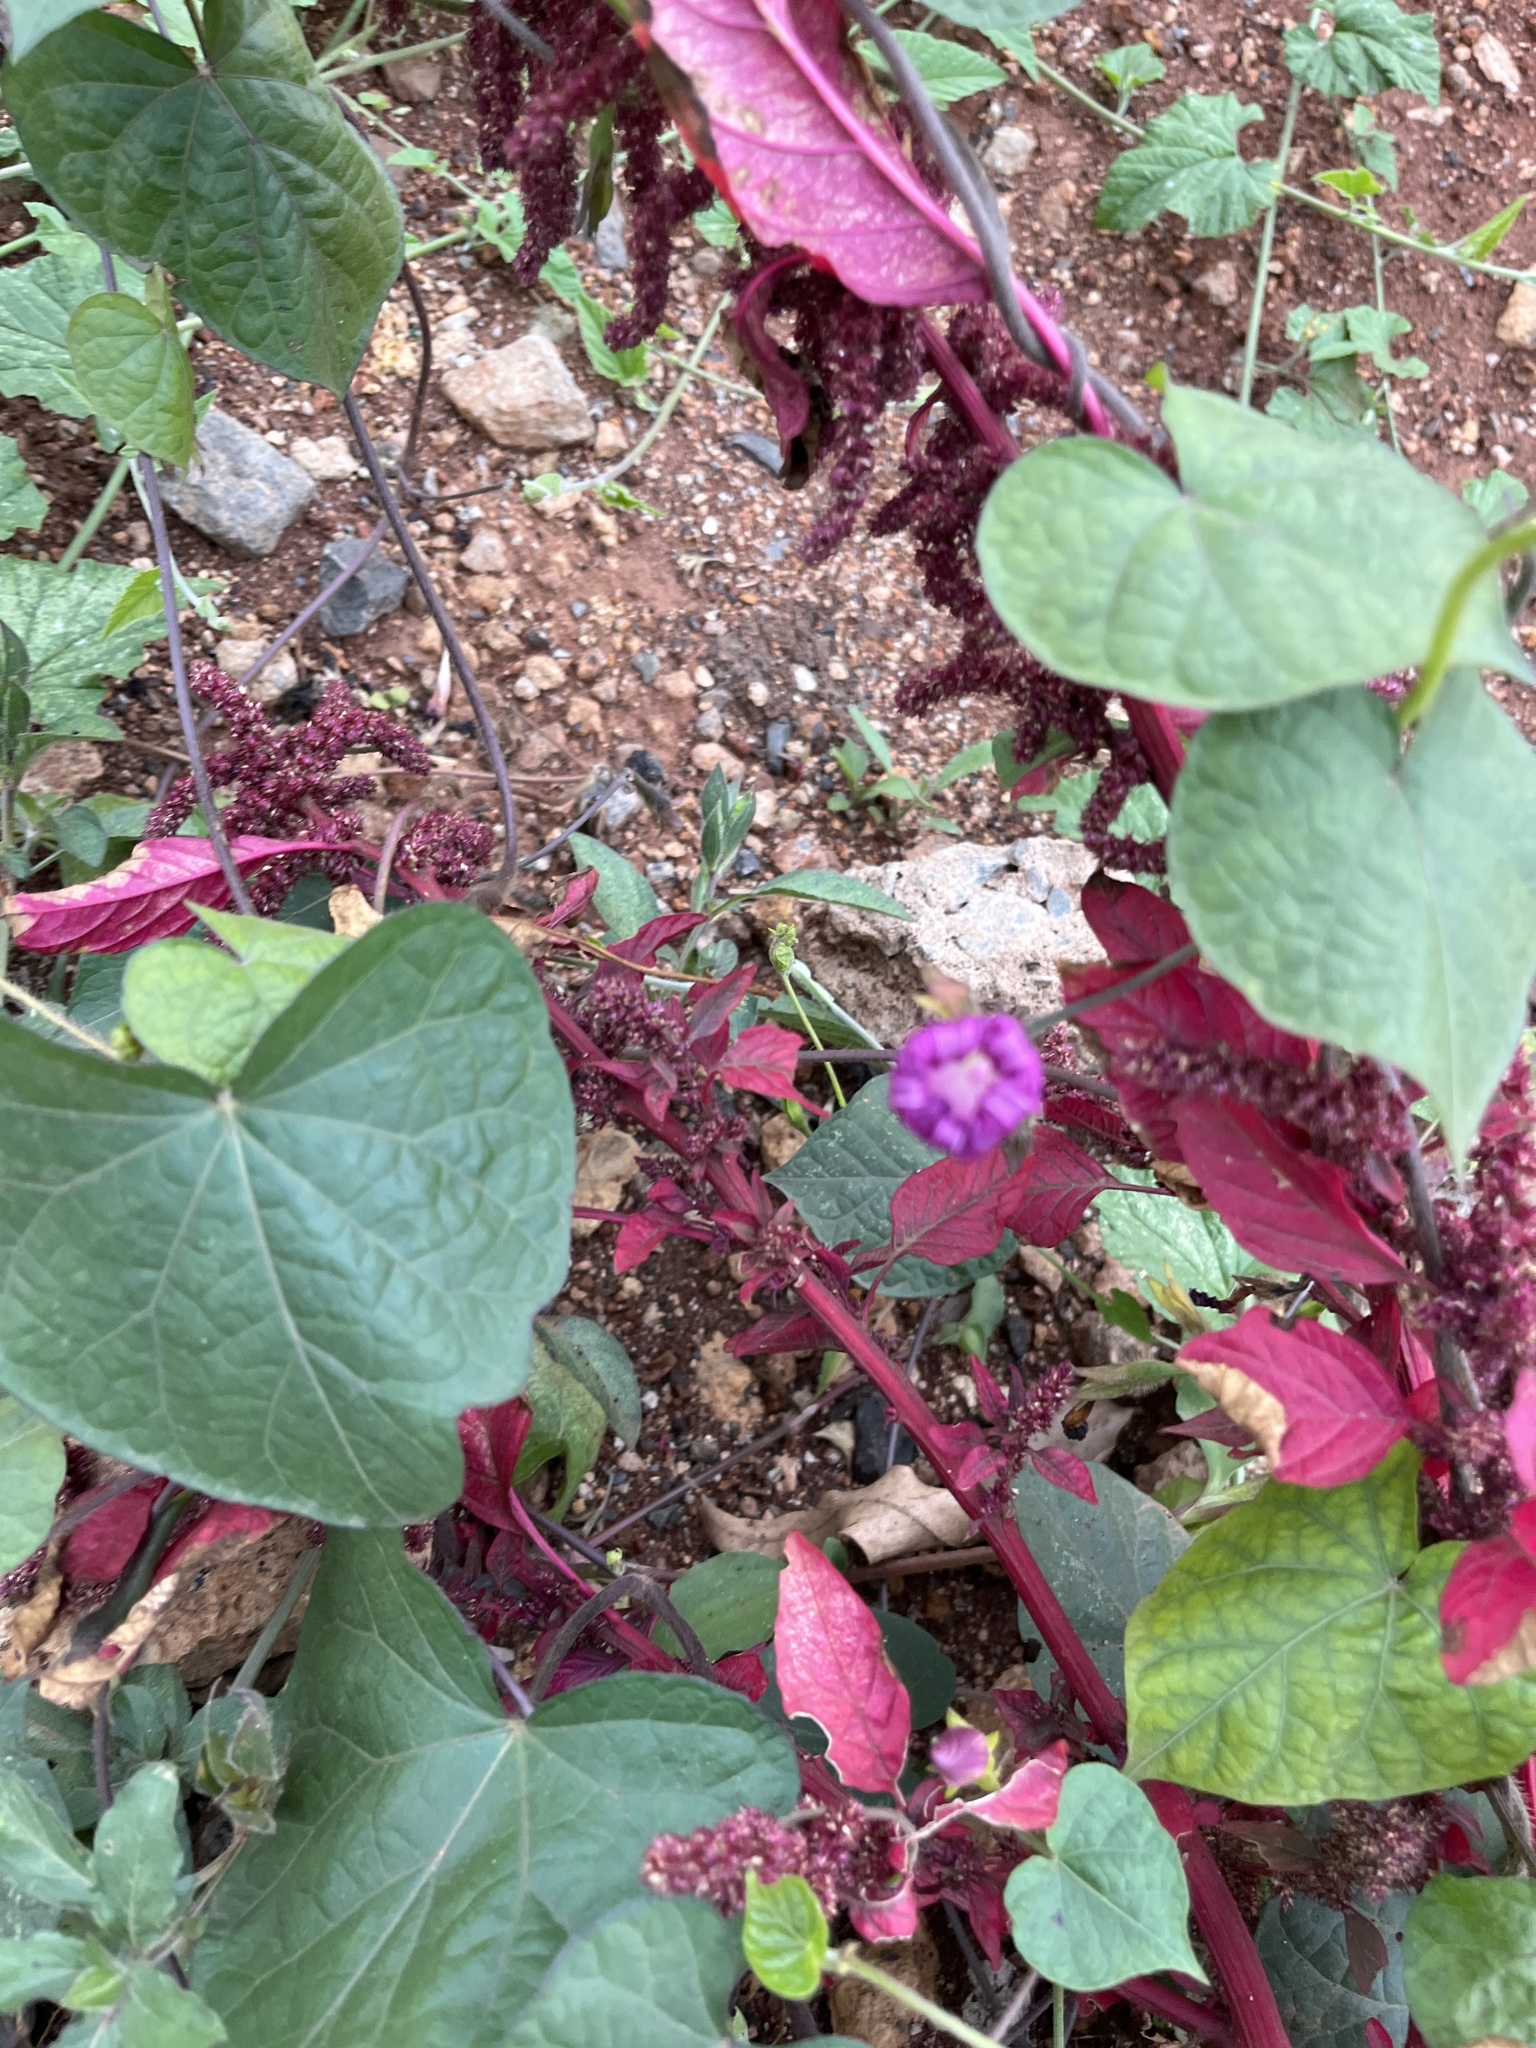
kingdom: Plantae
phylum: Tracheophyta
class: Magnoliopsida
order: Solanales
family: Convolvulaceae
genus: Ipomoea
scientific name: Ipomoea purpurea
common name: Common morning-glory
